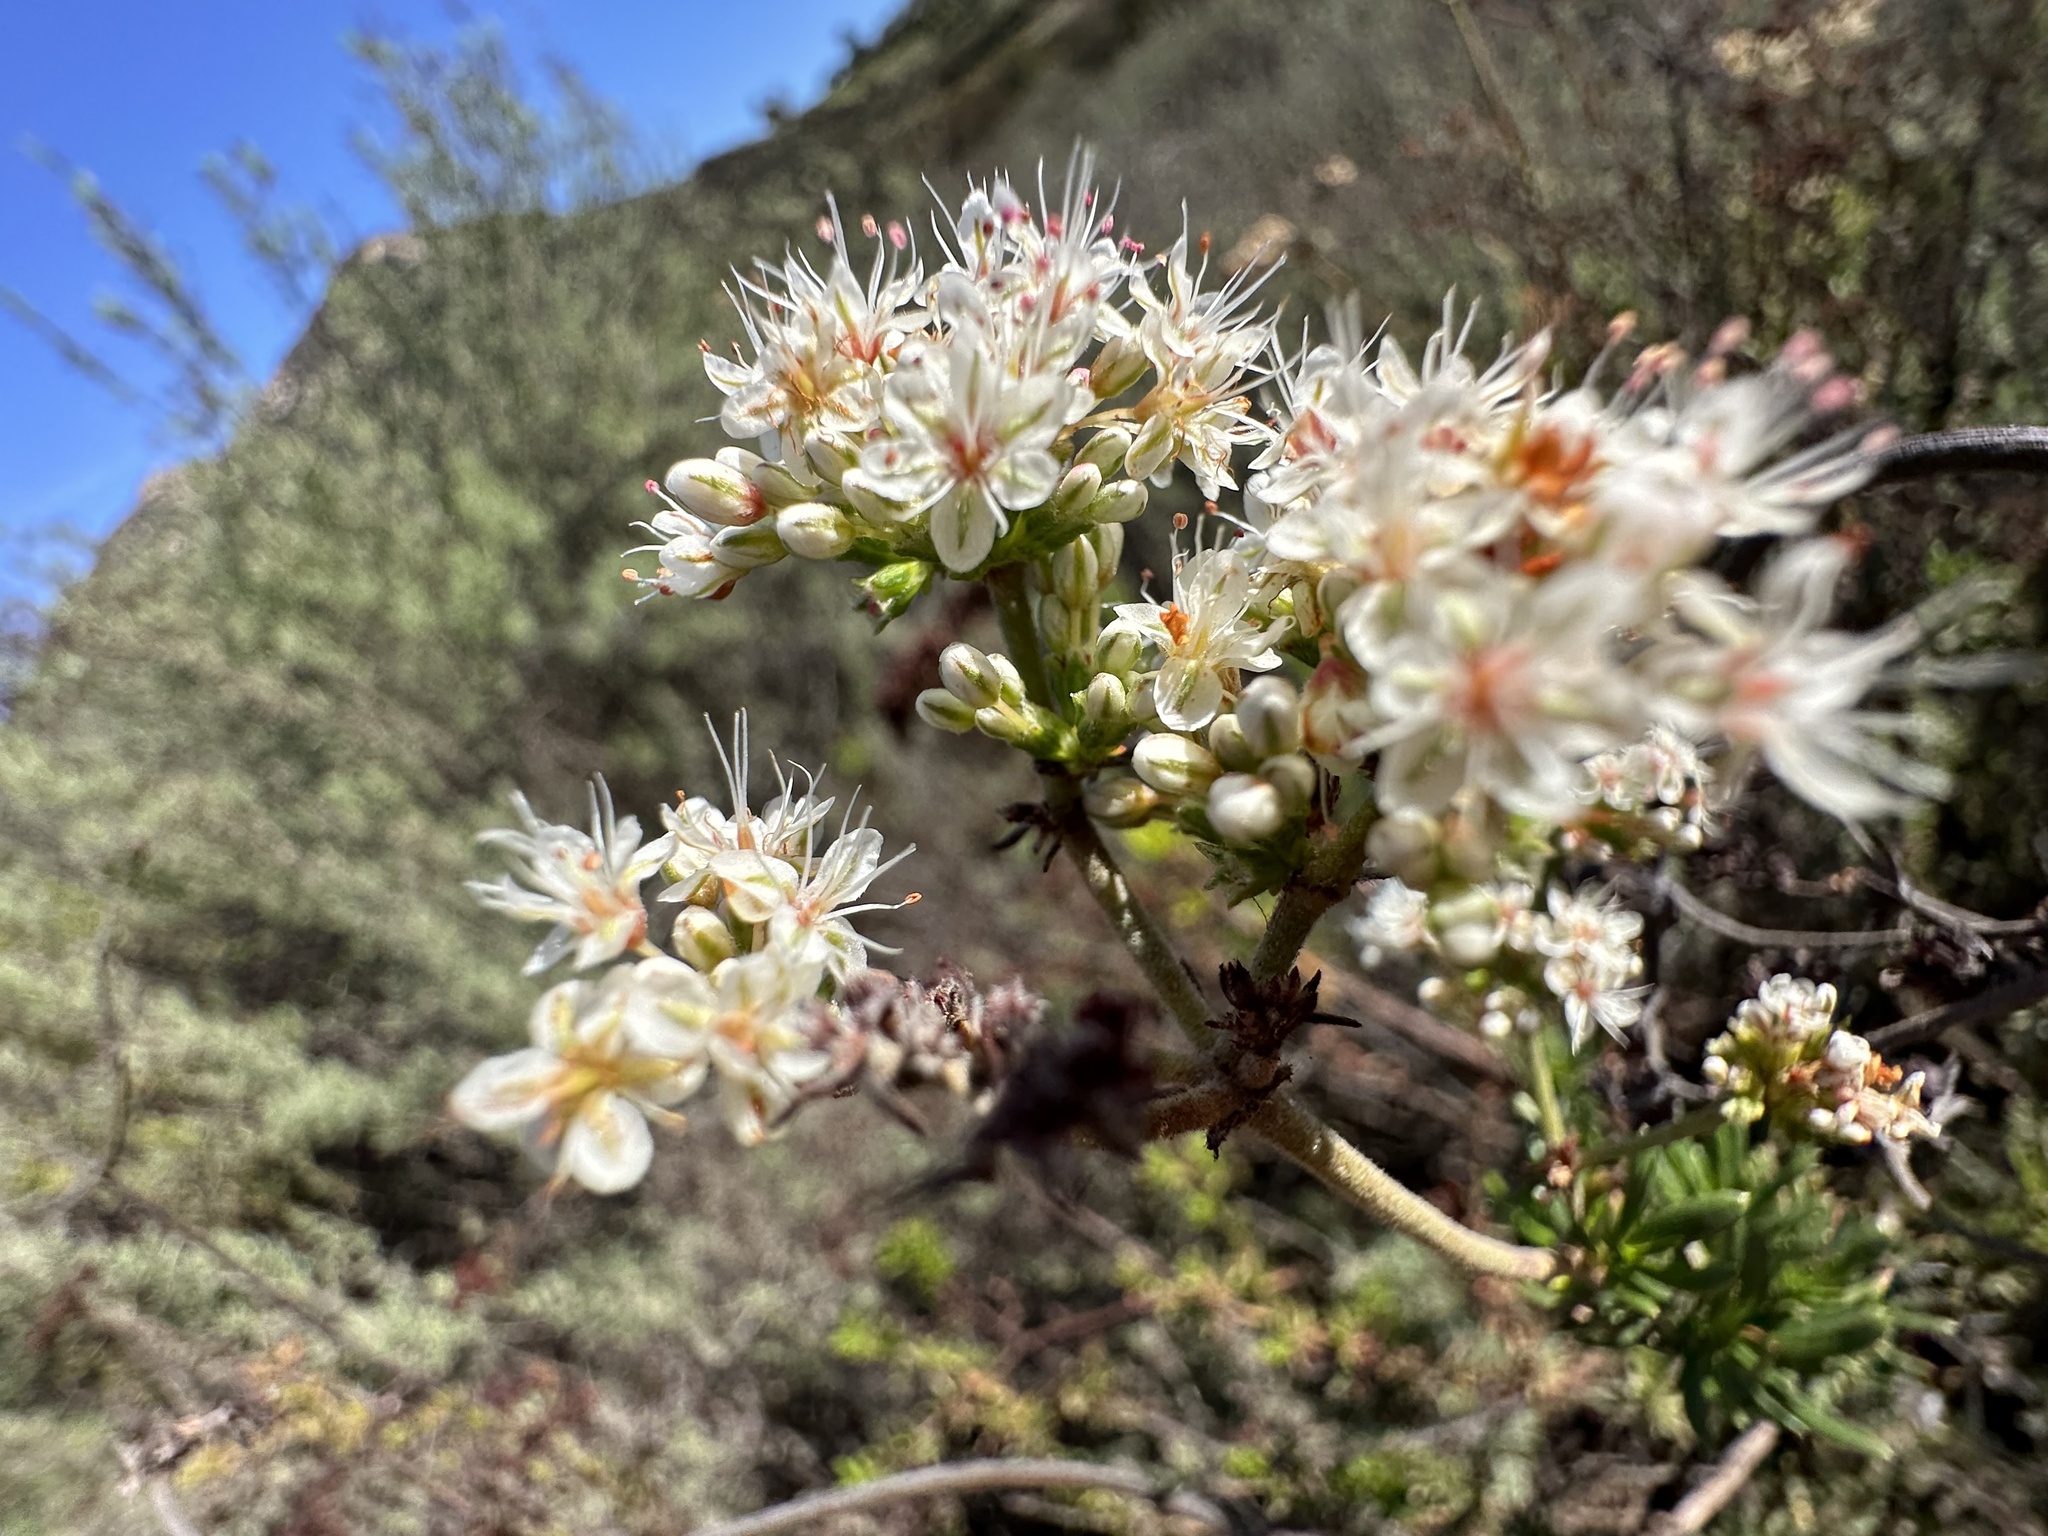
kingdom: Plantae
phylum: Tracheophyta
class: Magnoliopsida
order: Caryophyllales
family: Polygonaceae
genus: Eriogonum
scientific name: Eriogonum fasciculatum
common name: California wild buckwheat
